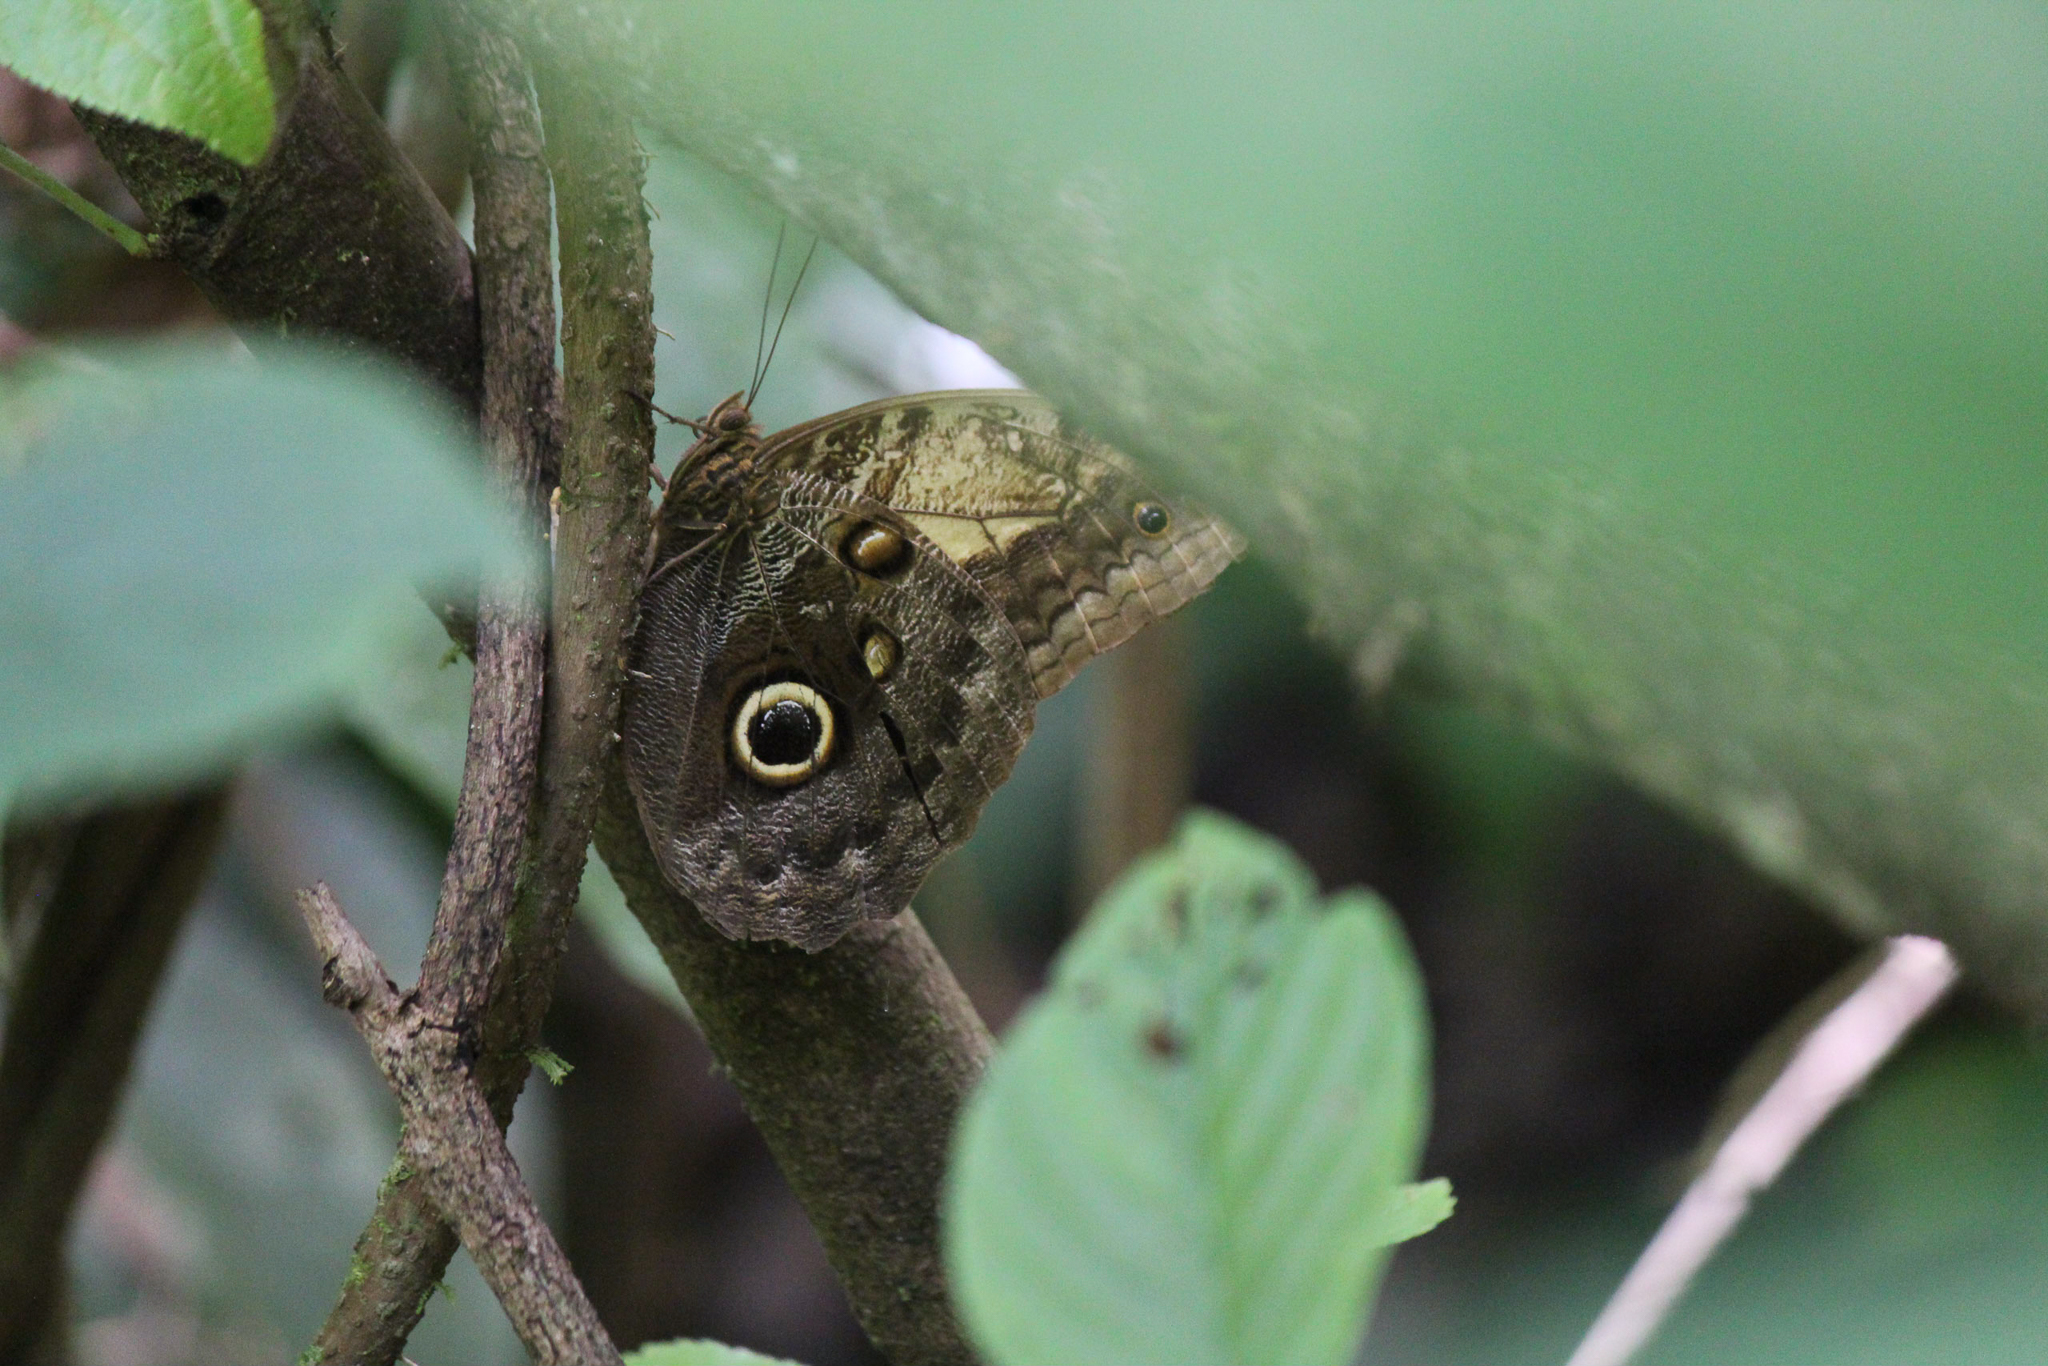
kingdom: Animalia
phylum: Arthropoda
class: Insecta
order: Lepidoptera
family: Nymphalidae
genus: Caligo
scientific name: Caligo telamonius
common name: Pale owl-butterfly
